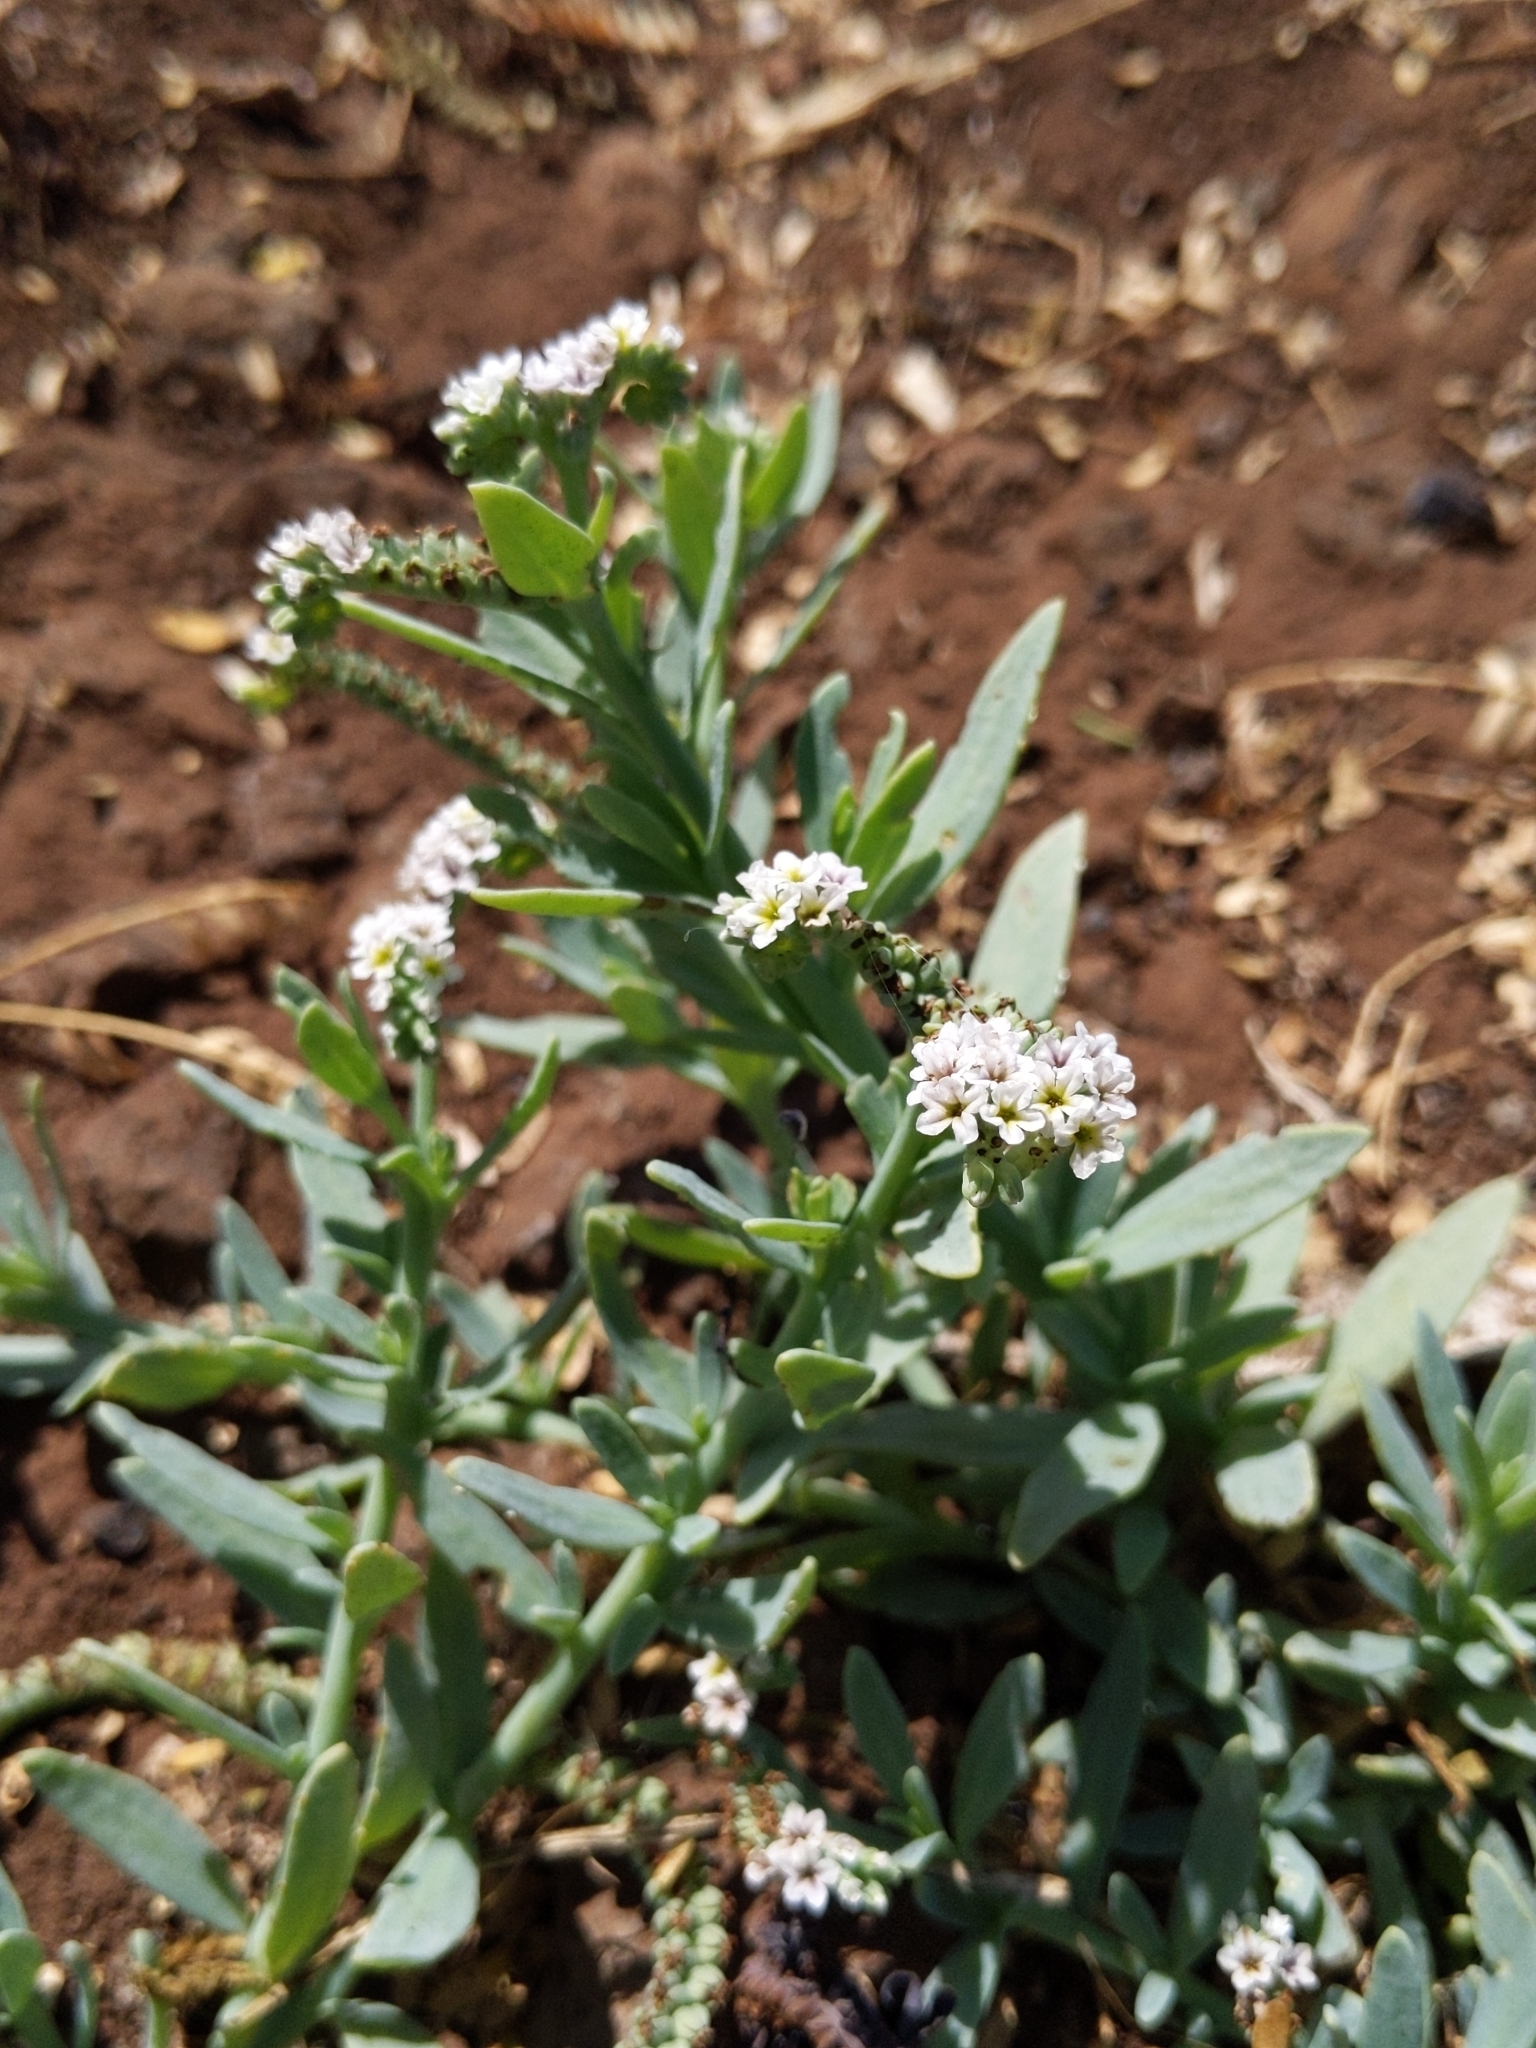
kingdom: Plantae
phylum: Tracheophyta
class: Magnoliopsida
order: Boraginales
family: Heliotropiaceae
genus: Heliotropium
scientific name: Heliotropium curassavicum
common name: Seaside heliotrope
